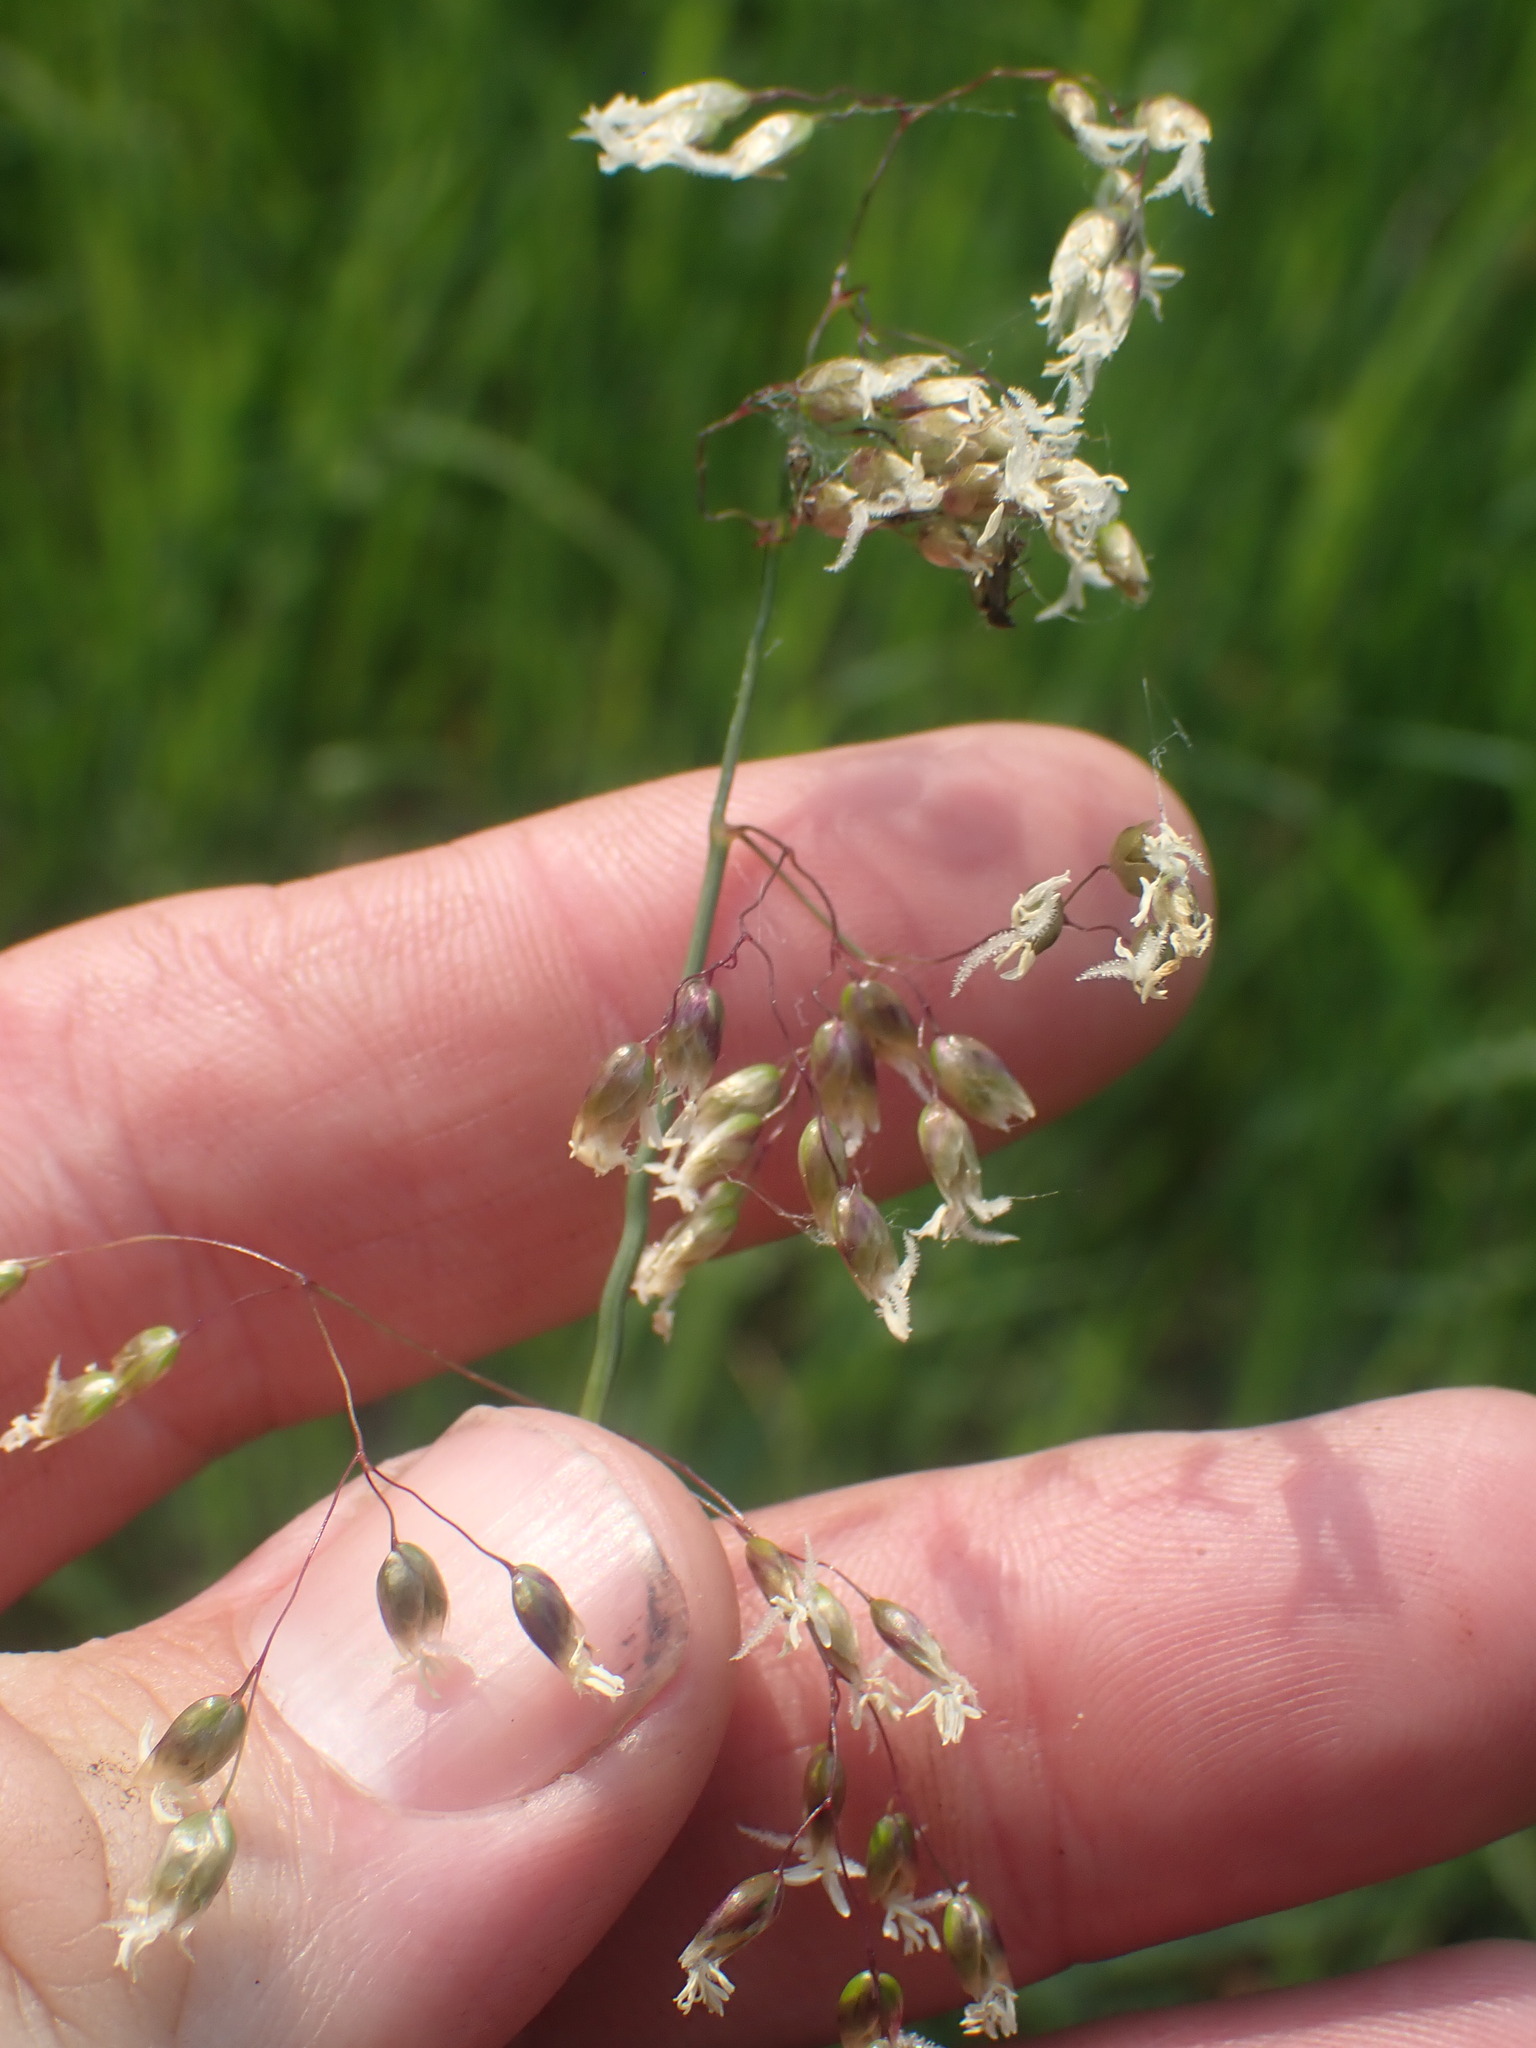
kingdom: Plantae
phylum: Tracheophyta
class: Liliopsida
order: Poales
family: Poaceae
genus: Anthoxanthum
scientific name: Anthoxanthum nitens
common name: Holy grass
